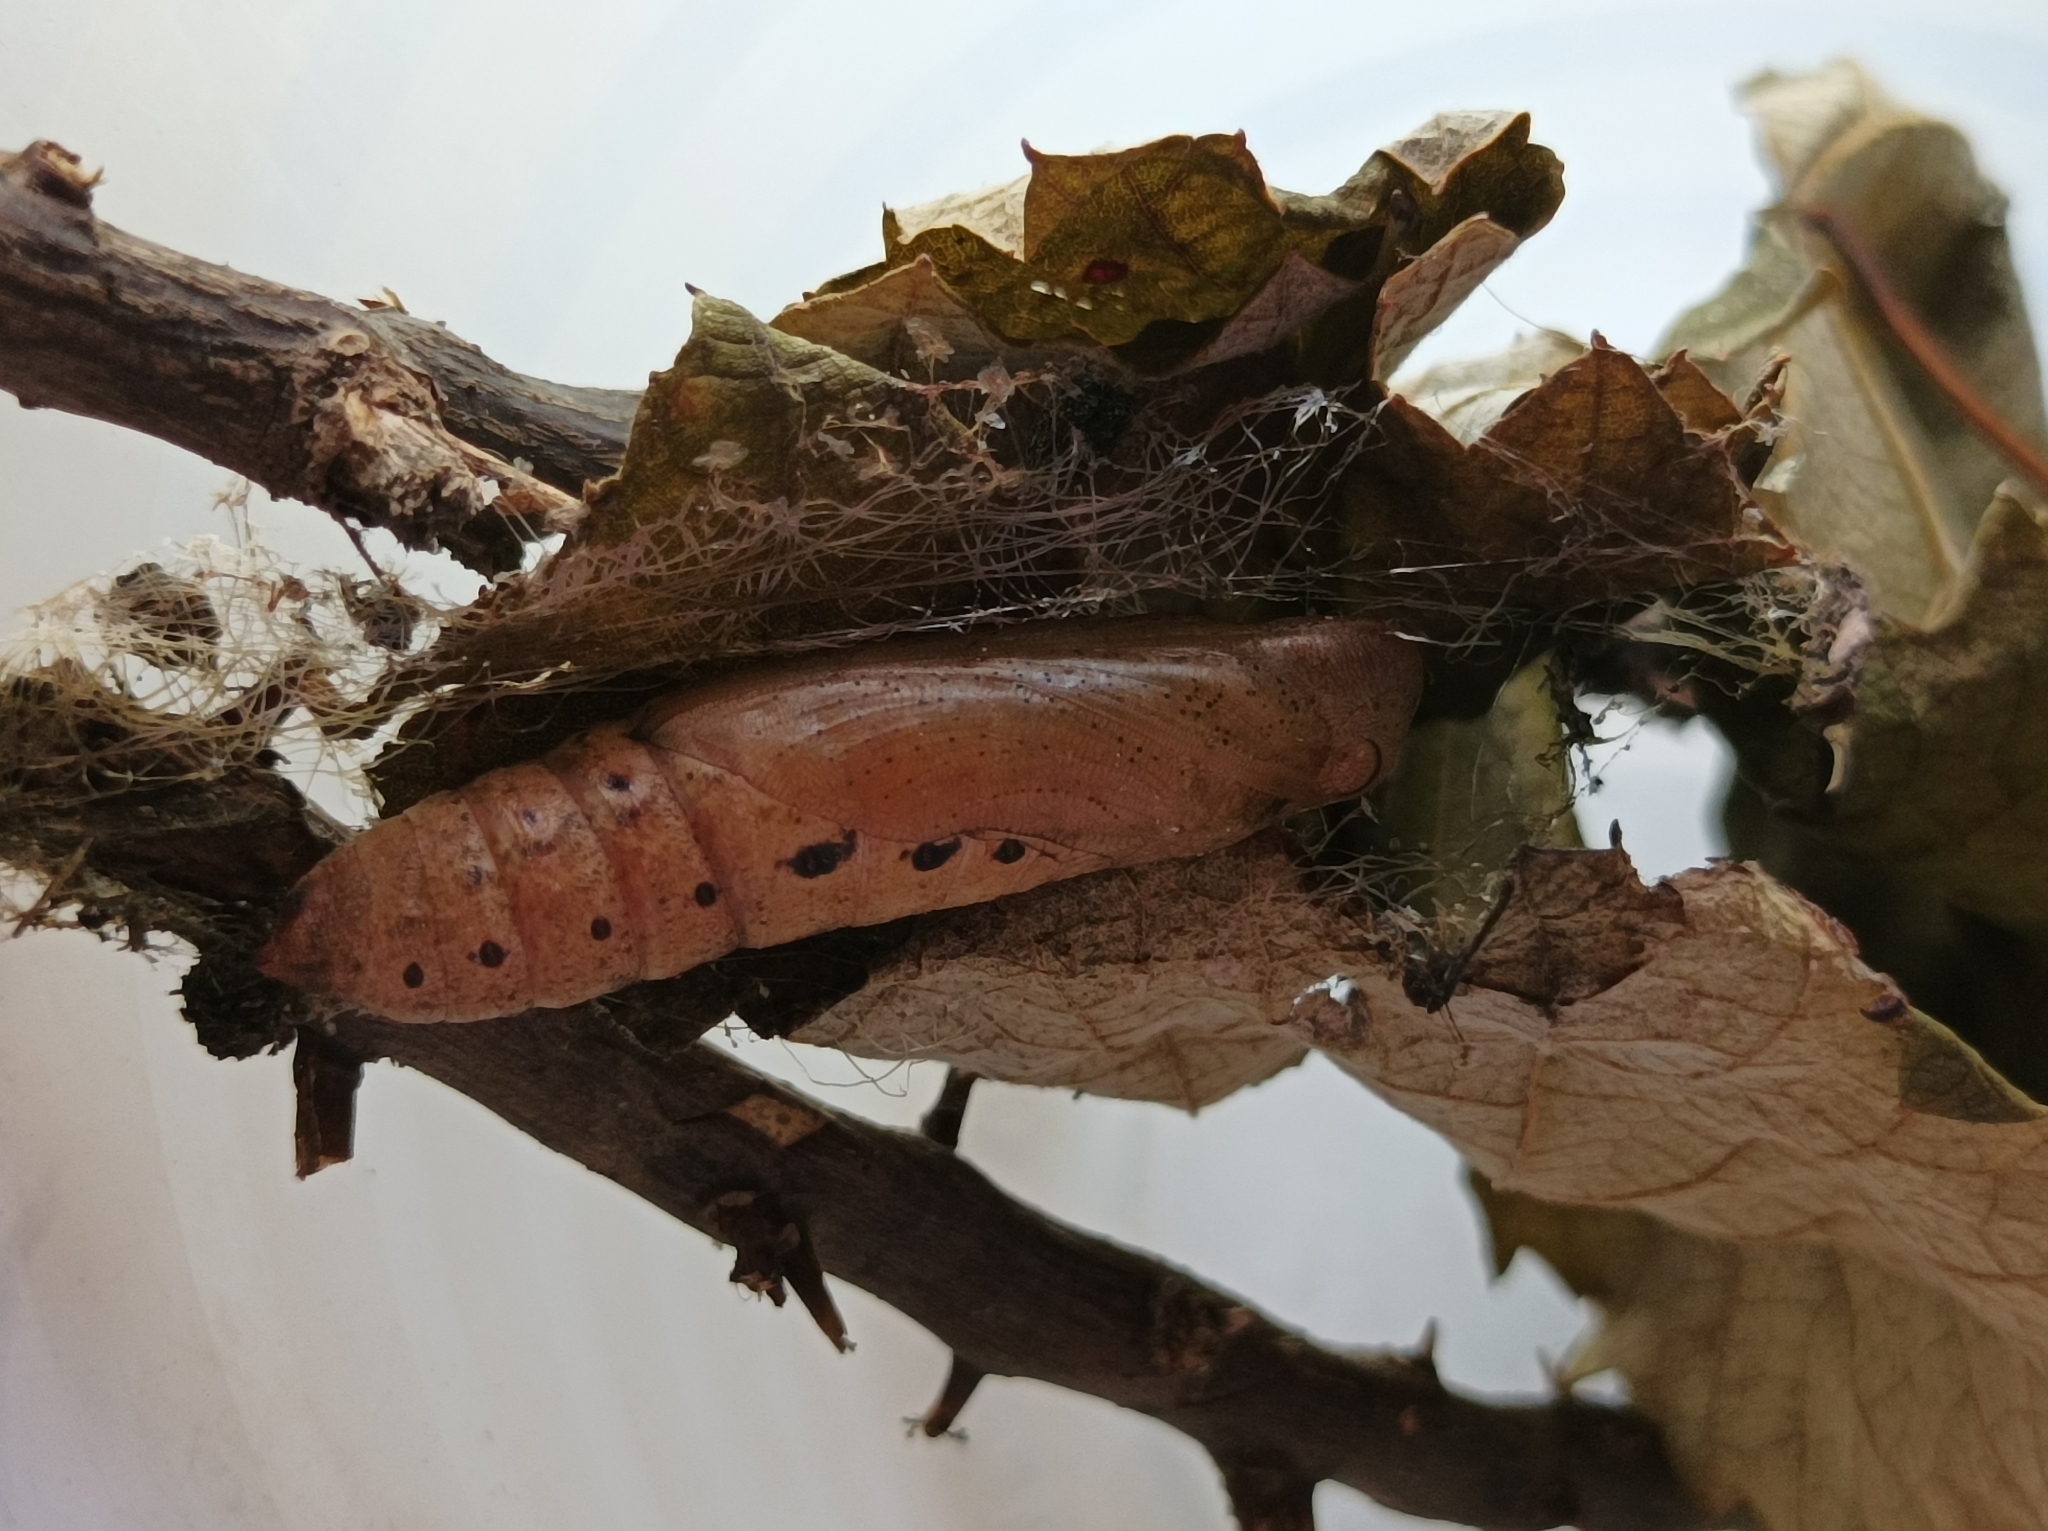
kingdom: Animalia
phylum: Arthropoda
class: Insecta
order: Lepidoptera
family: Sphingidae
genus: Gnathothlibus
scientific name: Gnathothlibus eras
